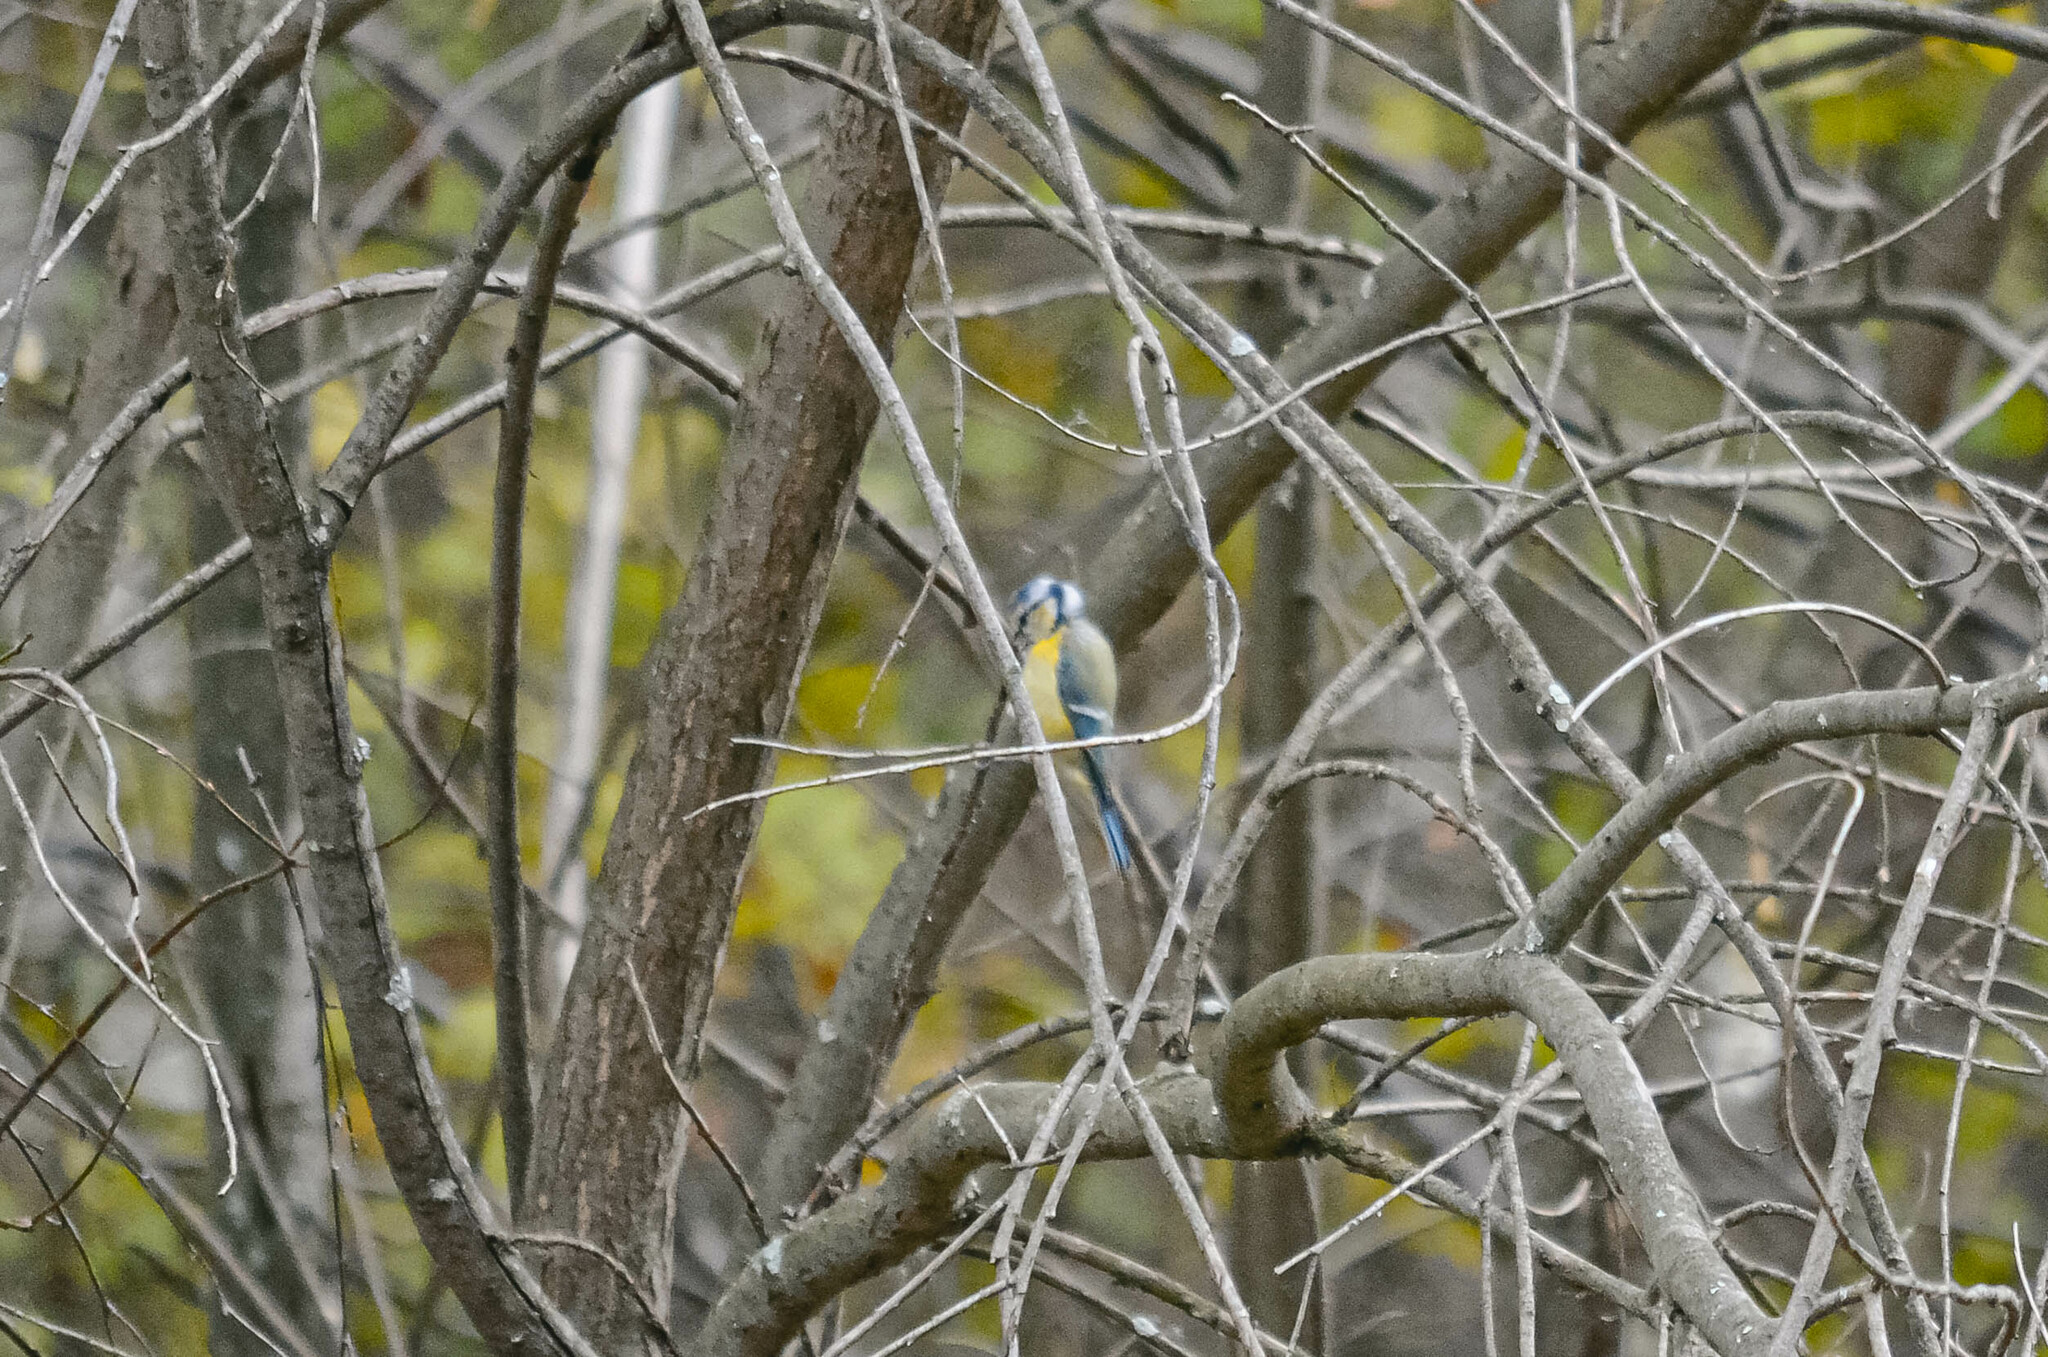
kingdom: Animalia
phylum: Chordata
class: Aves
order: Passeriformes
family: Paridae
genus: Cyanistes
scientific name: Cyanistes caeruleus
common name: Eurasian blue tit
